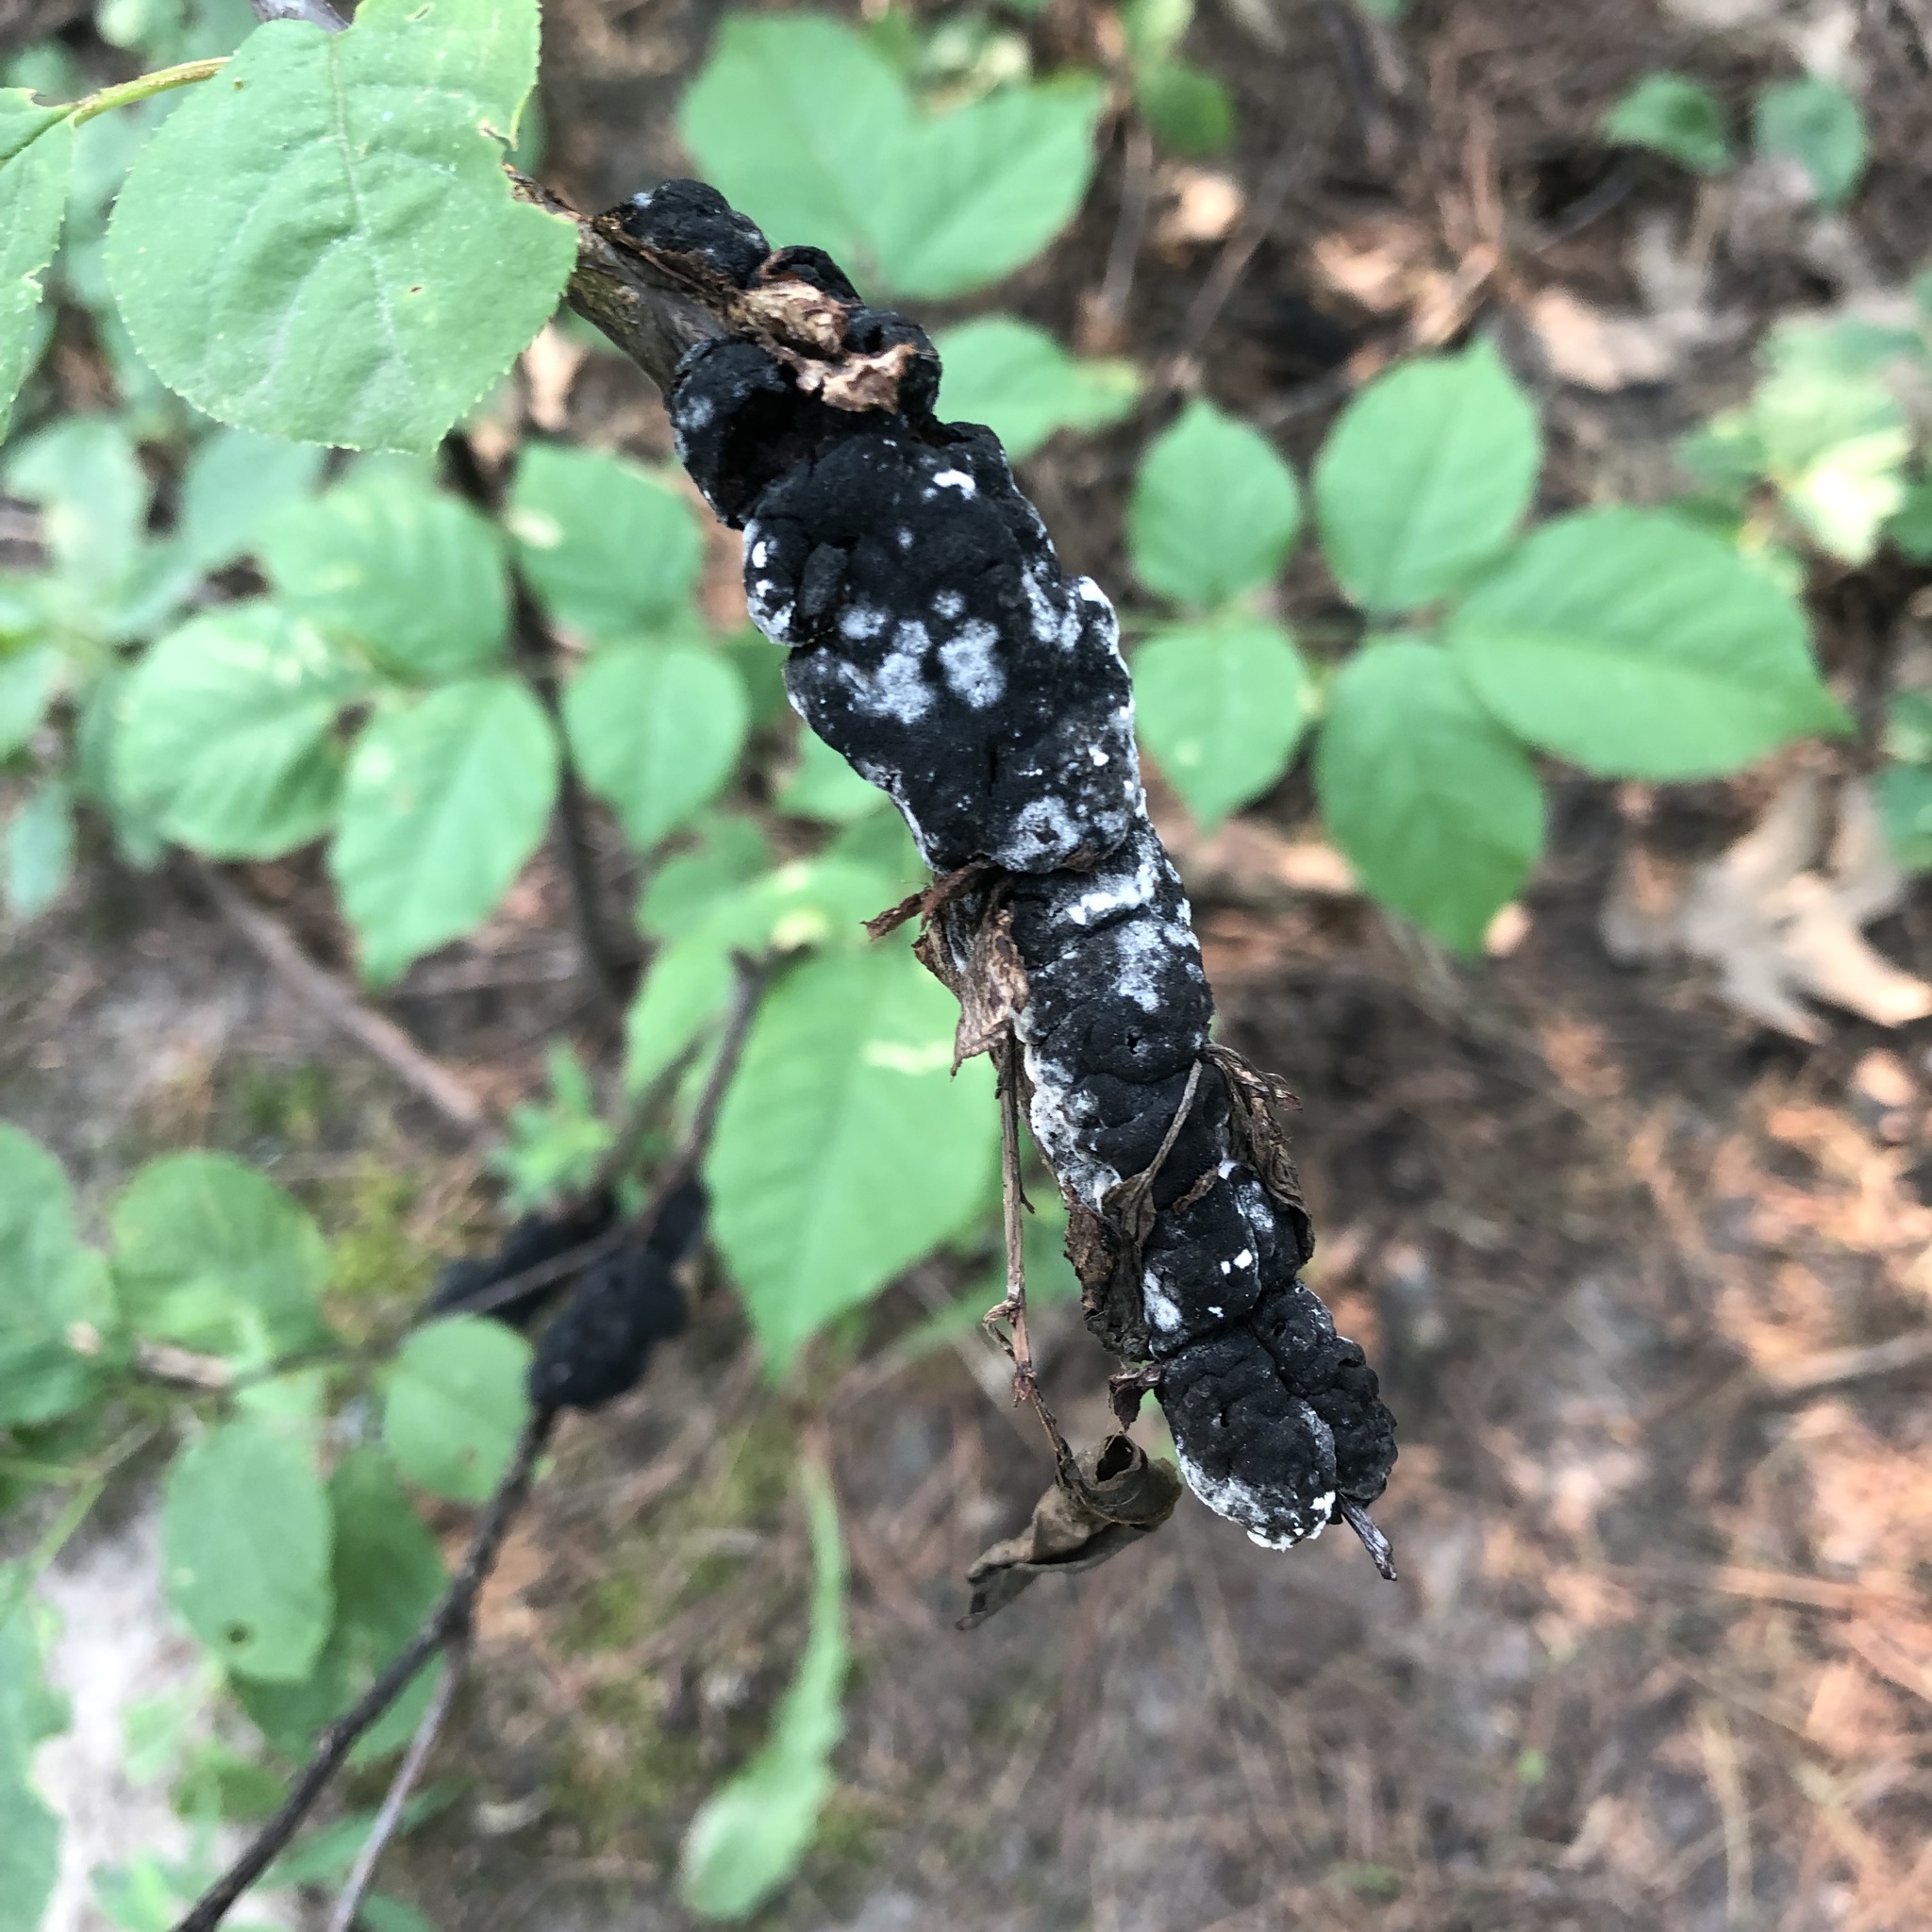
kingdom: Fungi
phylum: Ascomycota
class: Dothideomycetes
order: Venturiales
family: Venturiaceae
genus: Apiosporina
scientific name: Apiosporina morbosa
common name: Black knot
